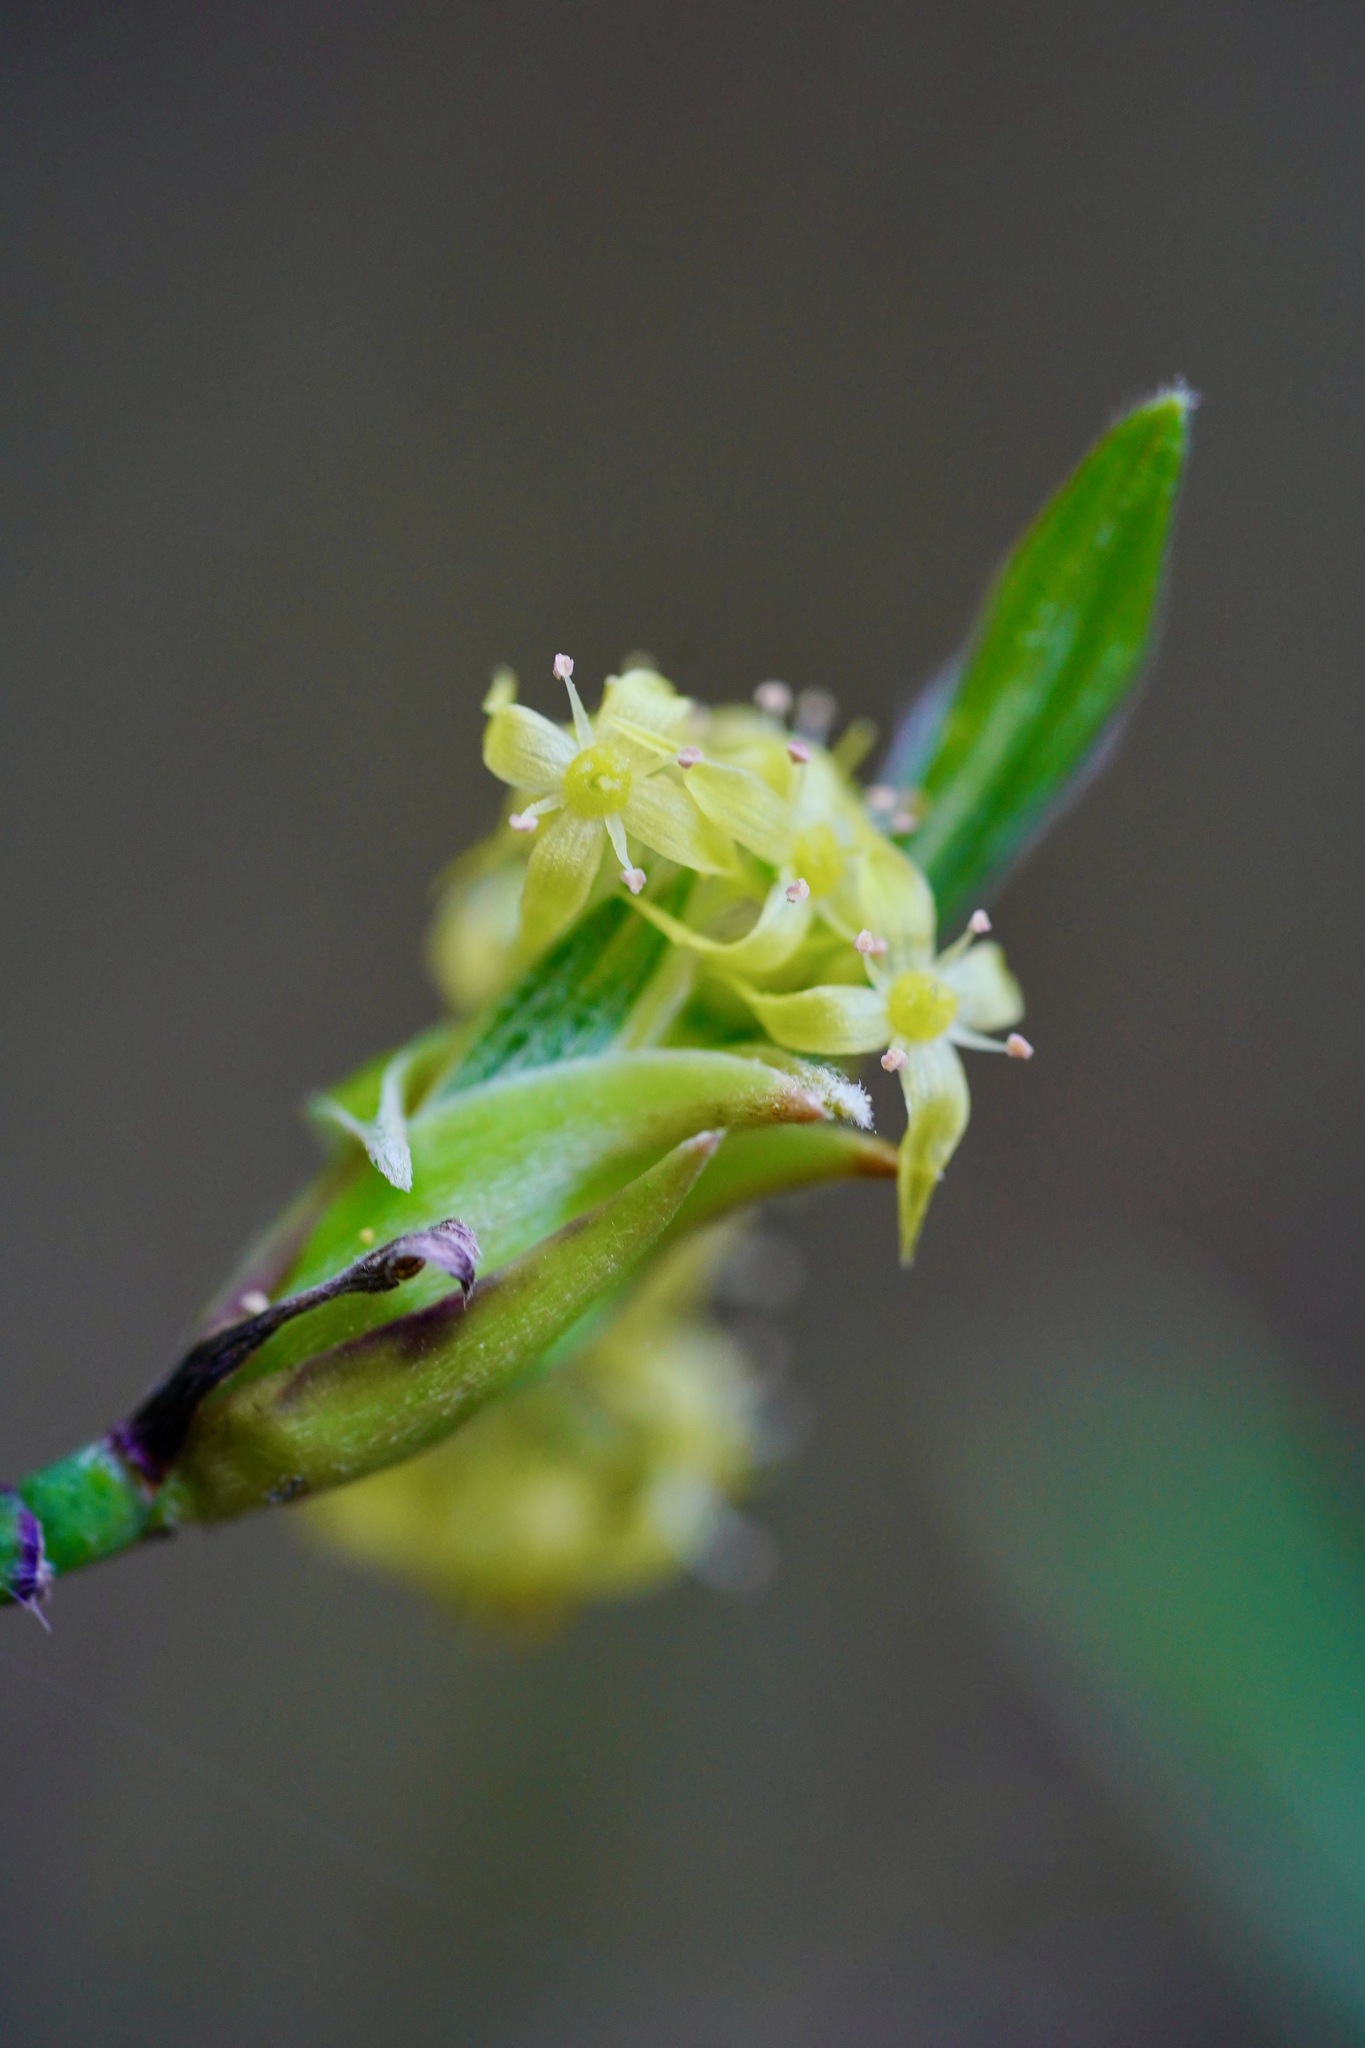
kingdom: Plantae
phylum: Tracheophyta
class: Magnoliopsida
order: Cornales
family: Cornaceae
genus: Cornus
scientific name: Cornus sessilis
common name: Blackfruit dogwood
